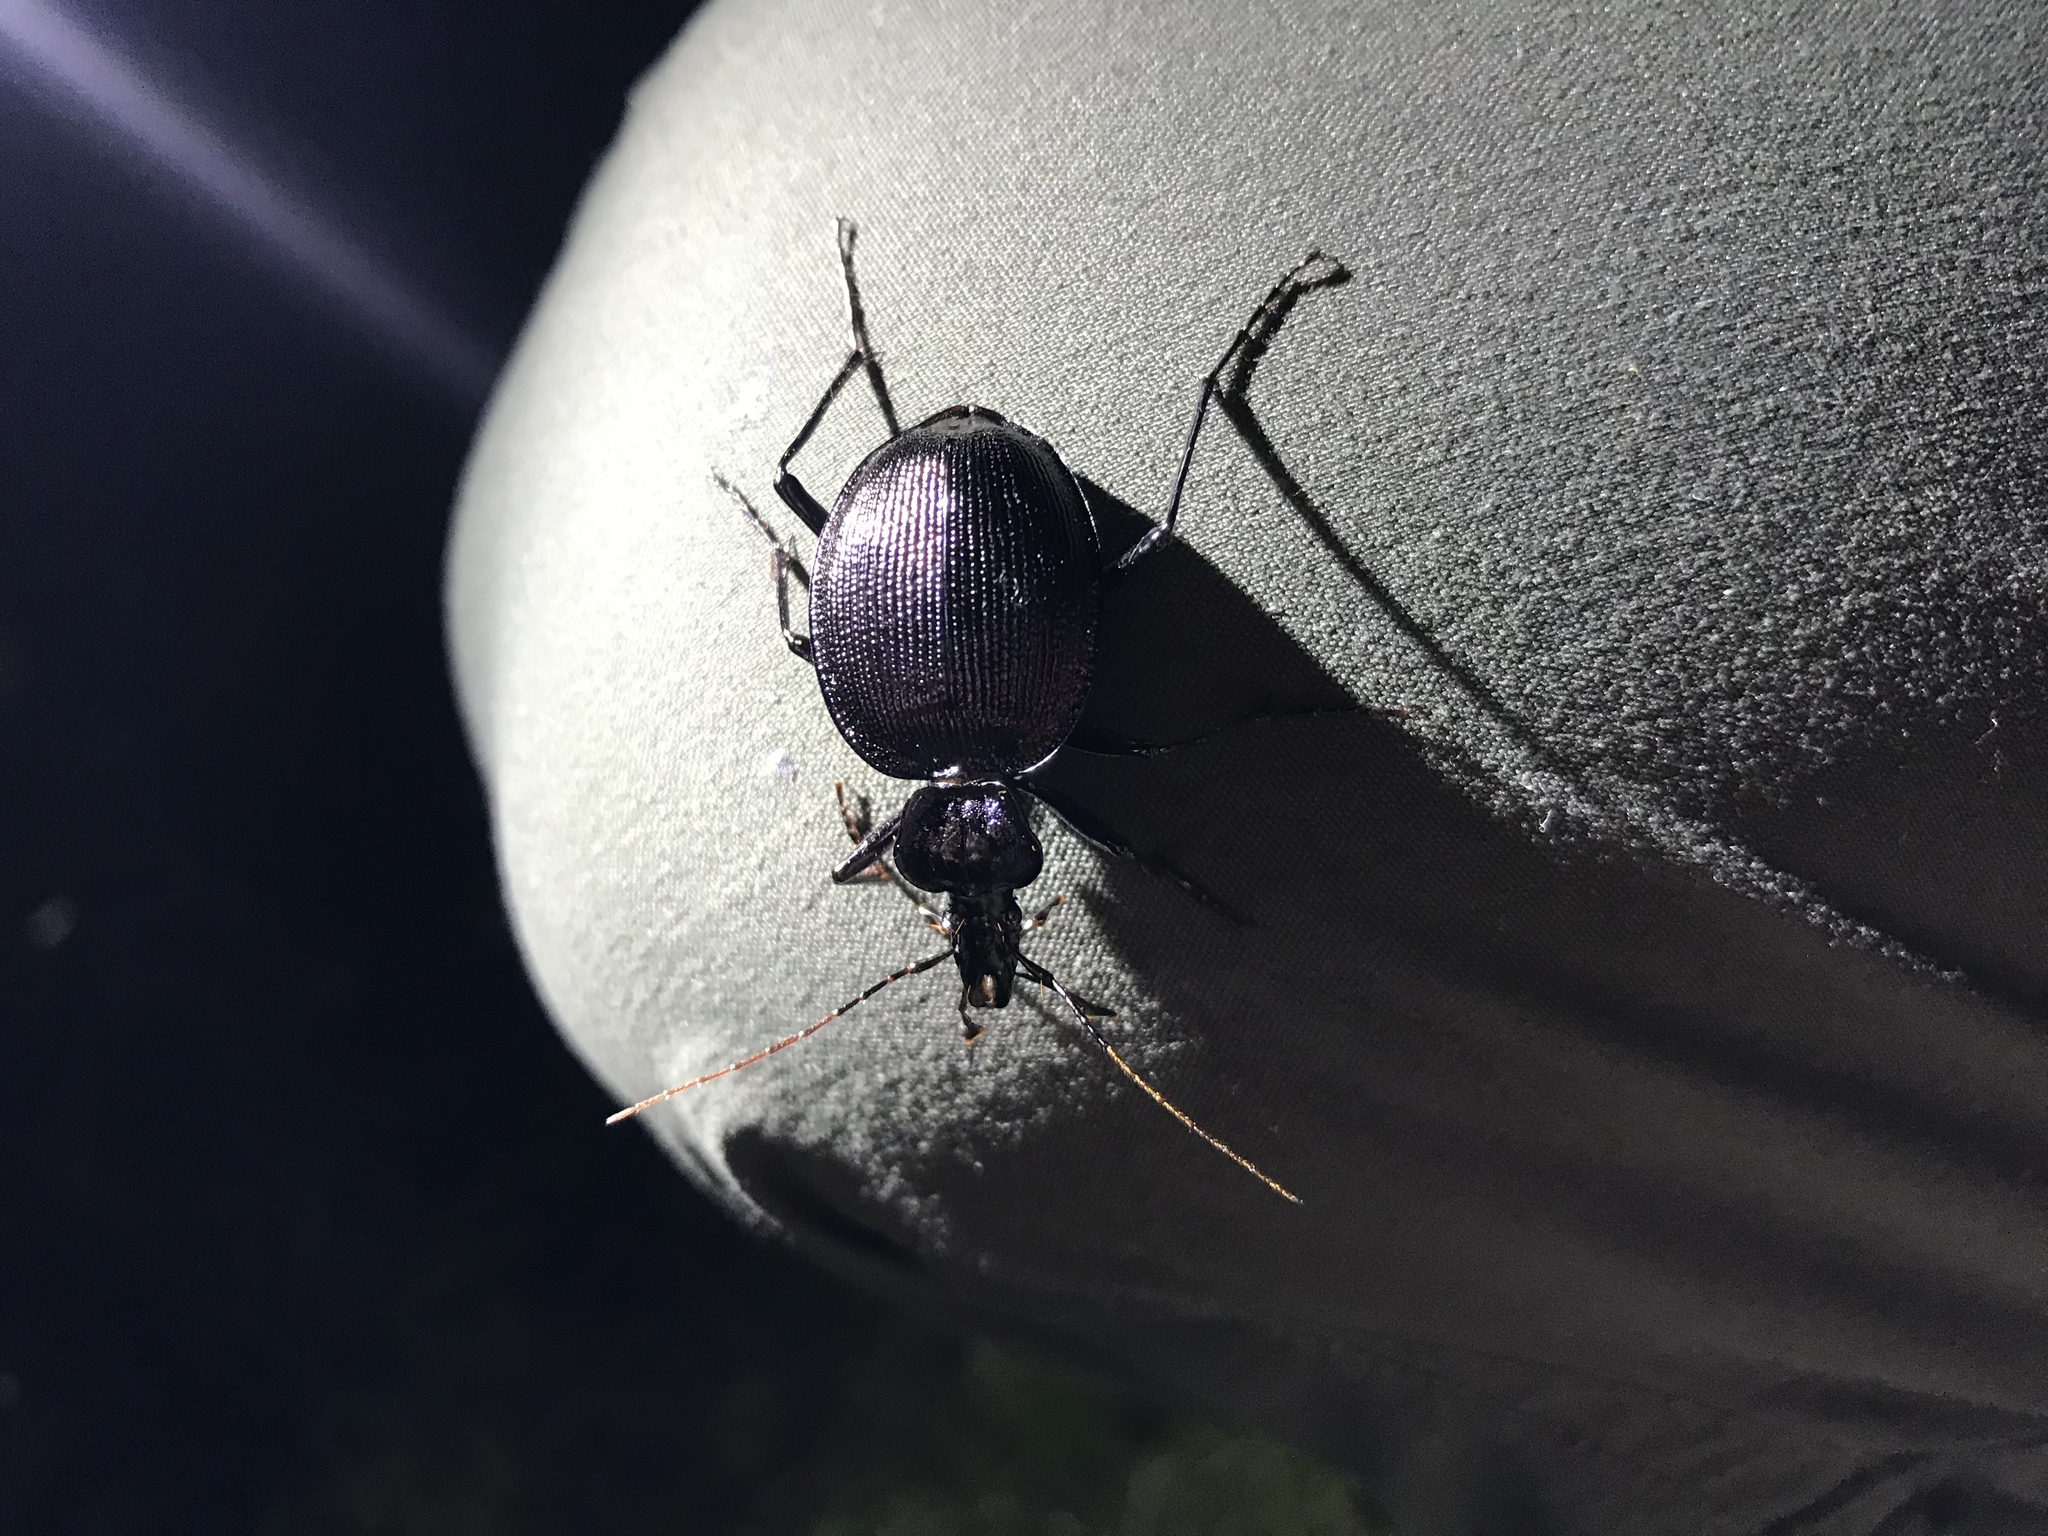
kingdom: Animalia
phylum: Arthropoda
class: Insecta
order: Coleoptera
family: Carabidae
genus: Scaphinotus
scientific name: Scaphinotus viduus
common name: Bereft snail-eating beetle
